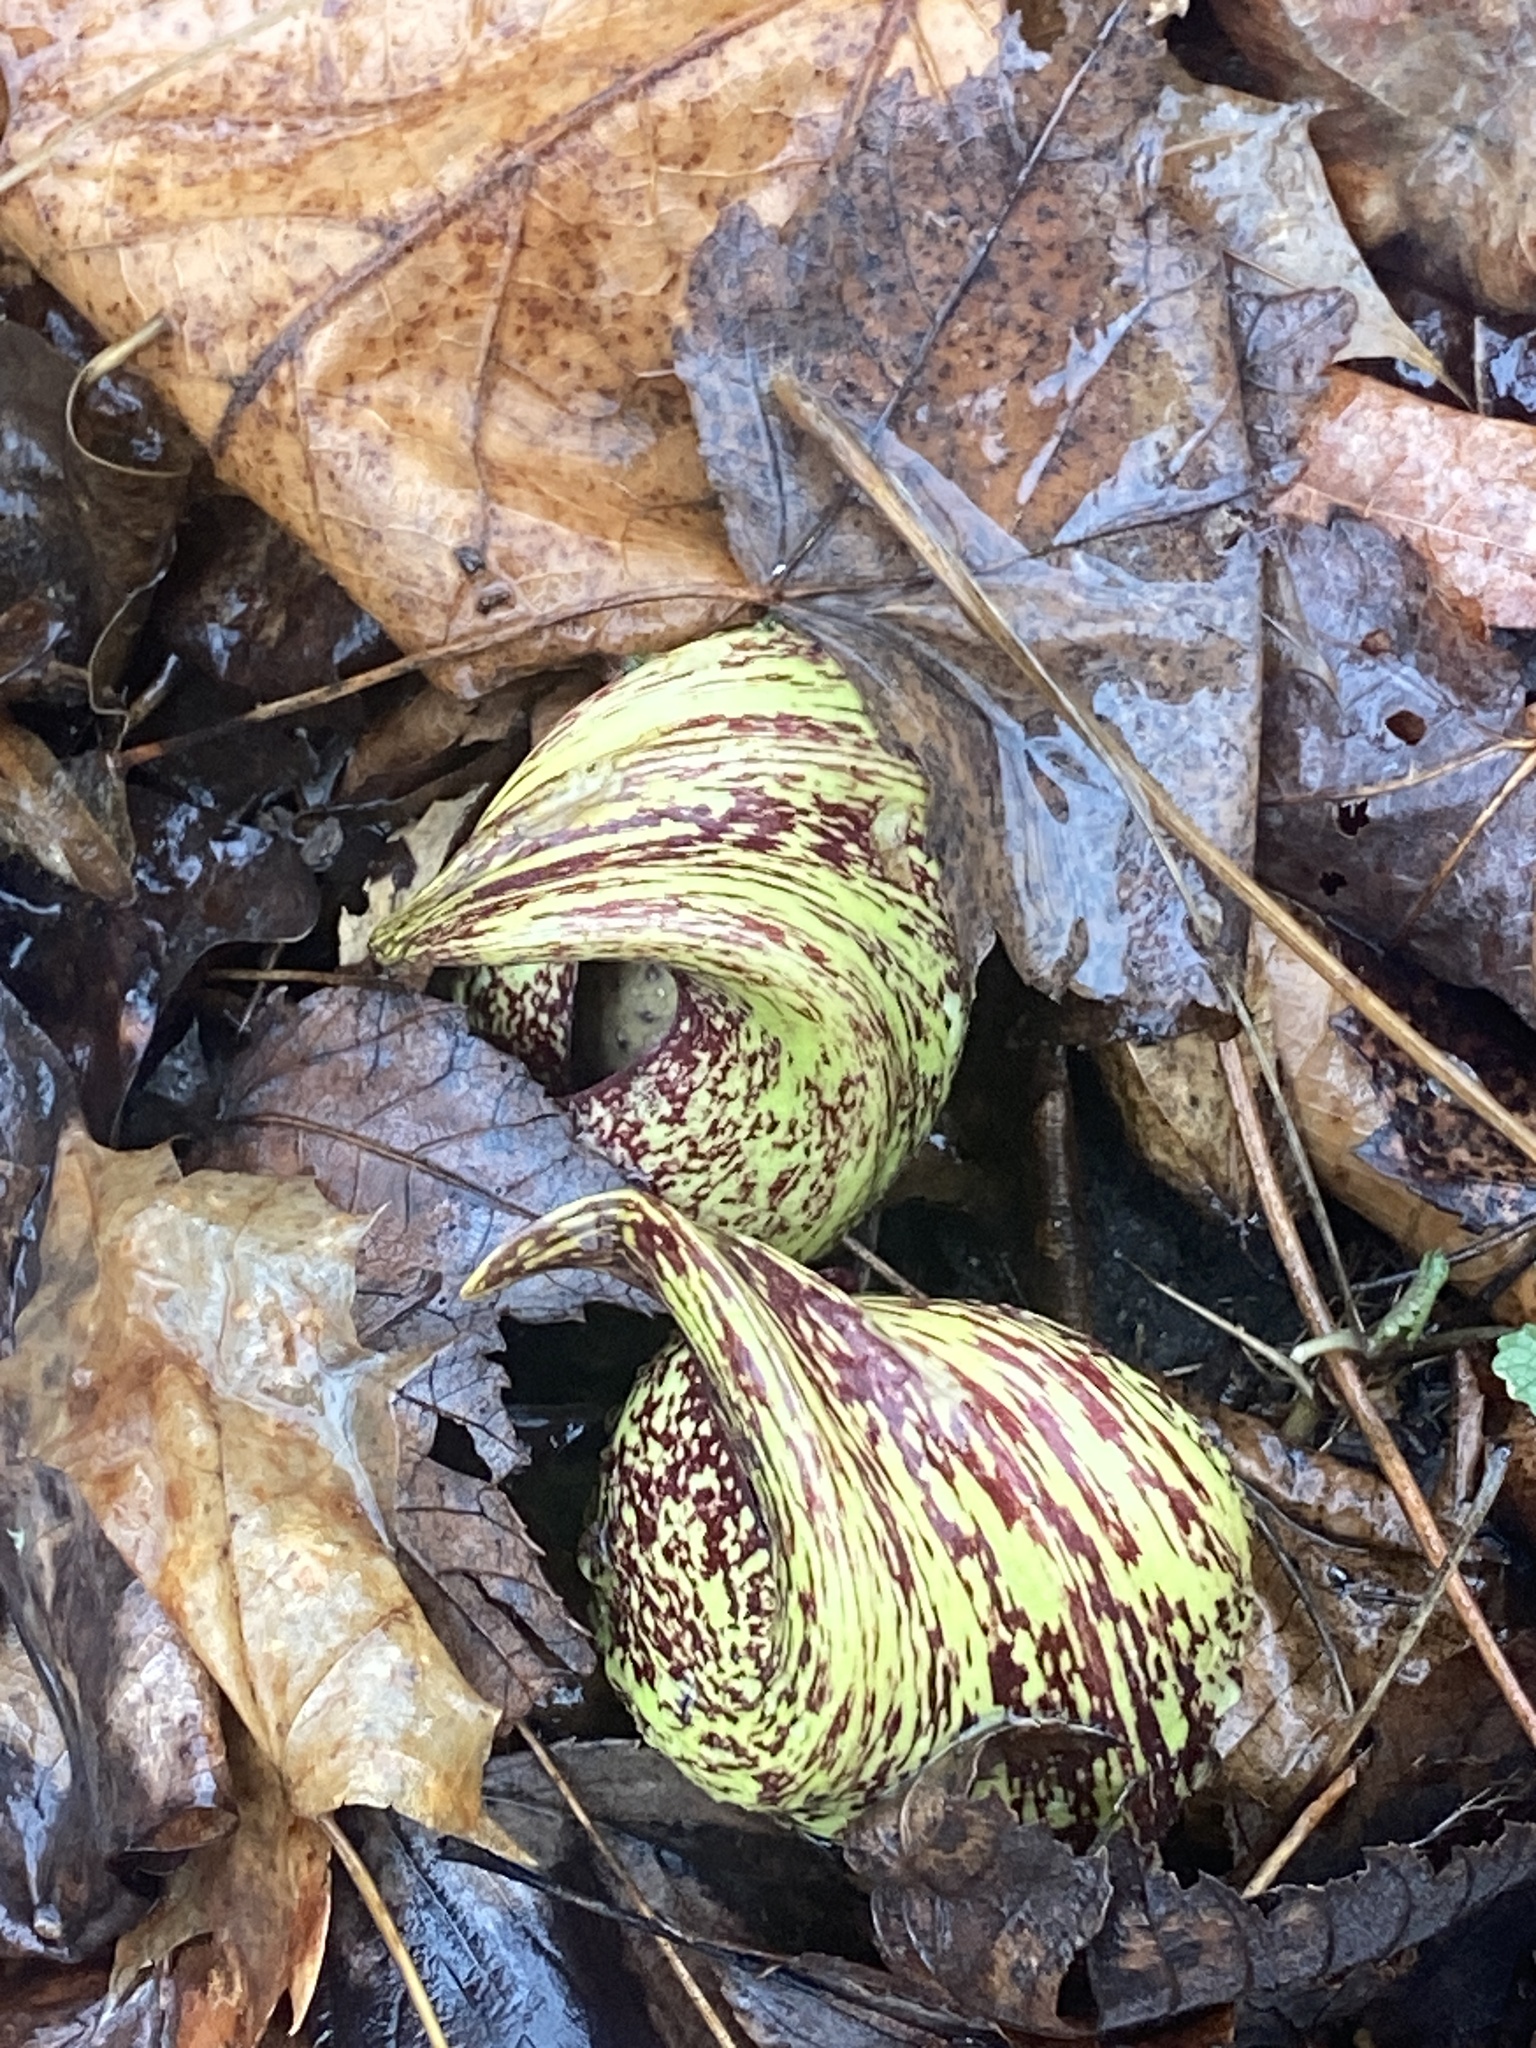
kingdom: Plantae
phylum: Tracheophyta
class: Liliopsida
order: Alismatales
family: Araceae
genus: Symplocarpus
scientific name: Symplocarpus foetidus
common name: Eastern skunk cabbage
